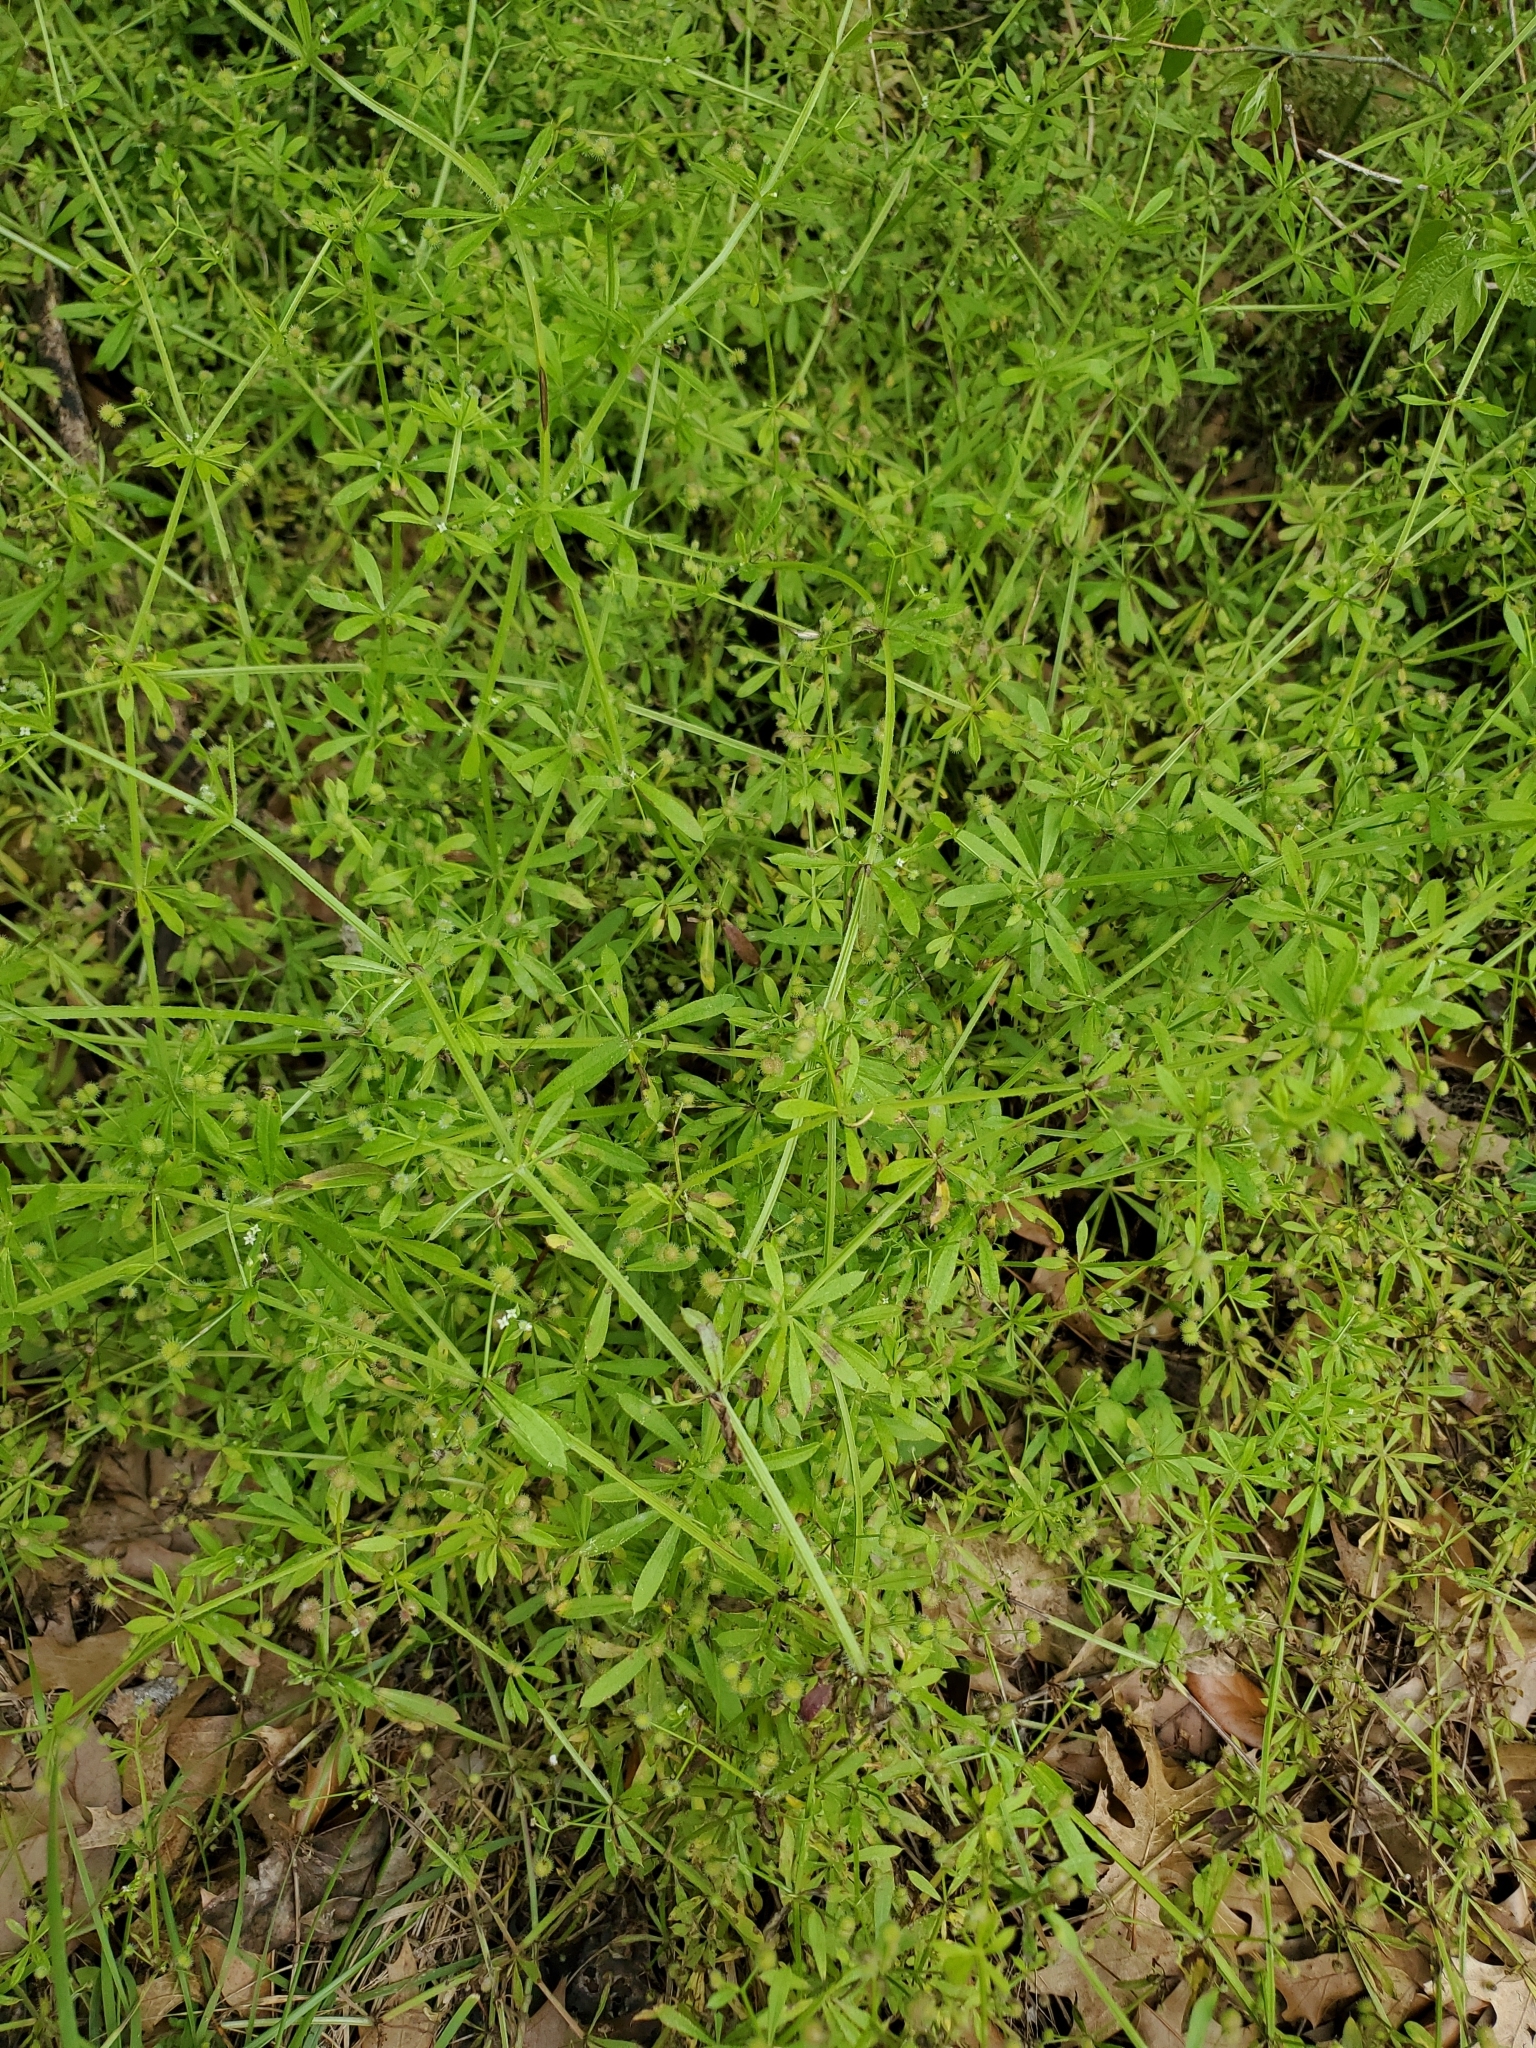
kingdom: Plantae
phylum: Tracheophyta
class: Magnoliopsida
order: Gentianales
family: Rubiaceae
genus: Galium
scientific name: Galium aparine
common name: Cleavers
